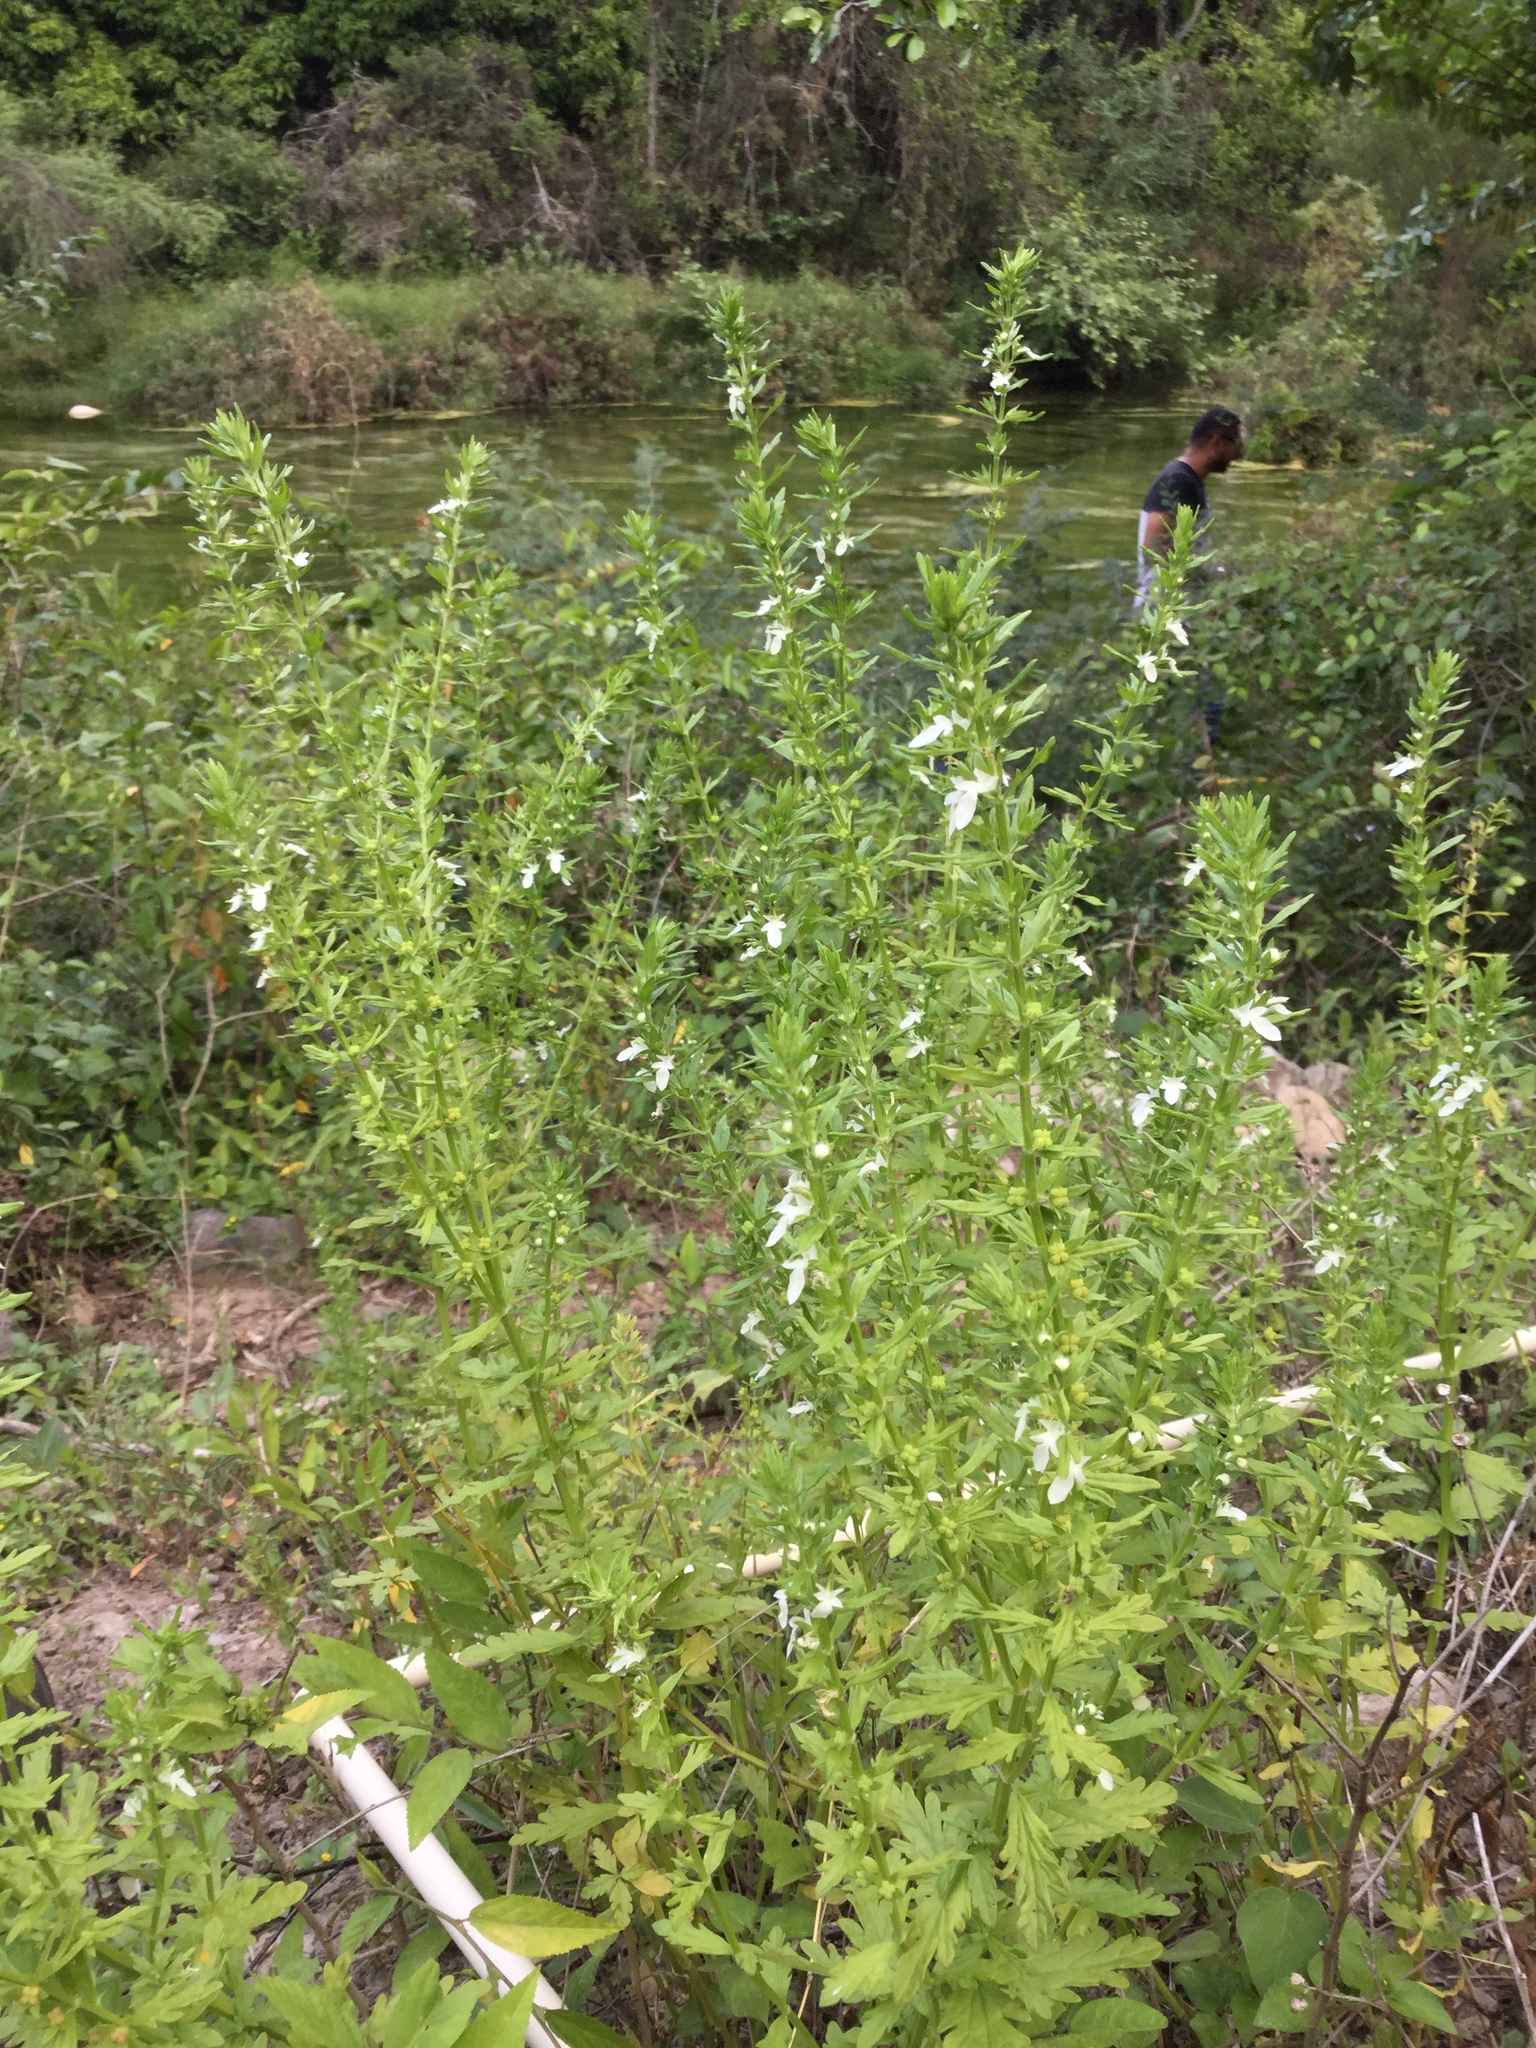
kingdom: Plantae
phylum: Tracheophyta
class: Magnoliopsida
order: Lamiales
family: Lamiaceae
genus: Teucrium
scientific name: Teucrium cubense
